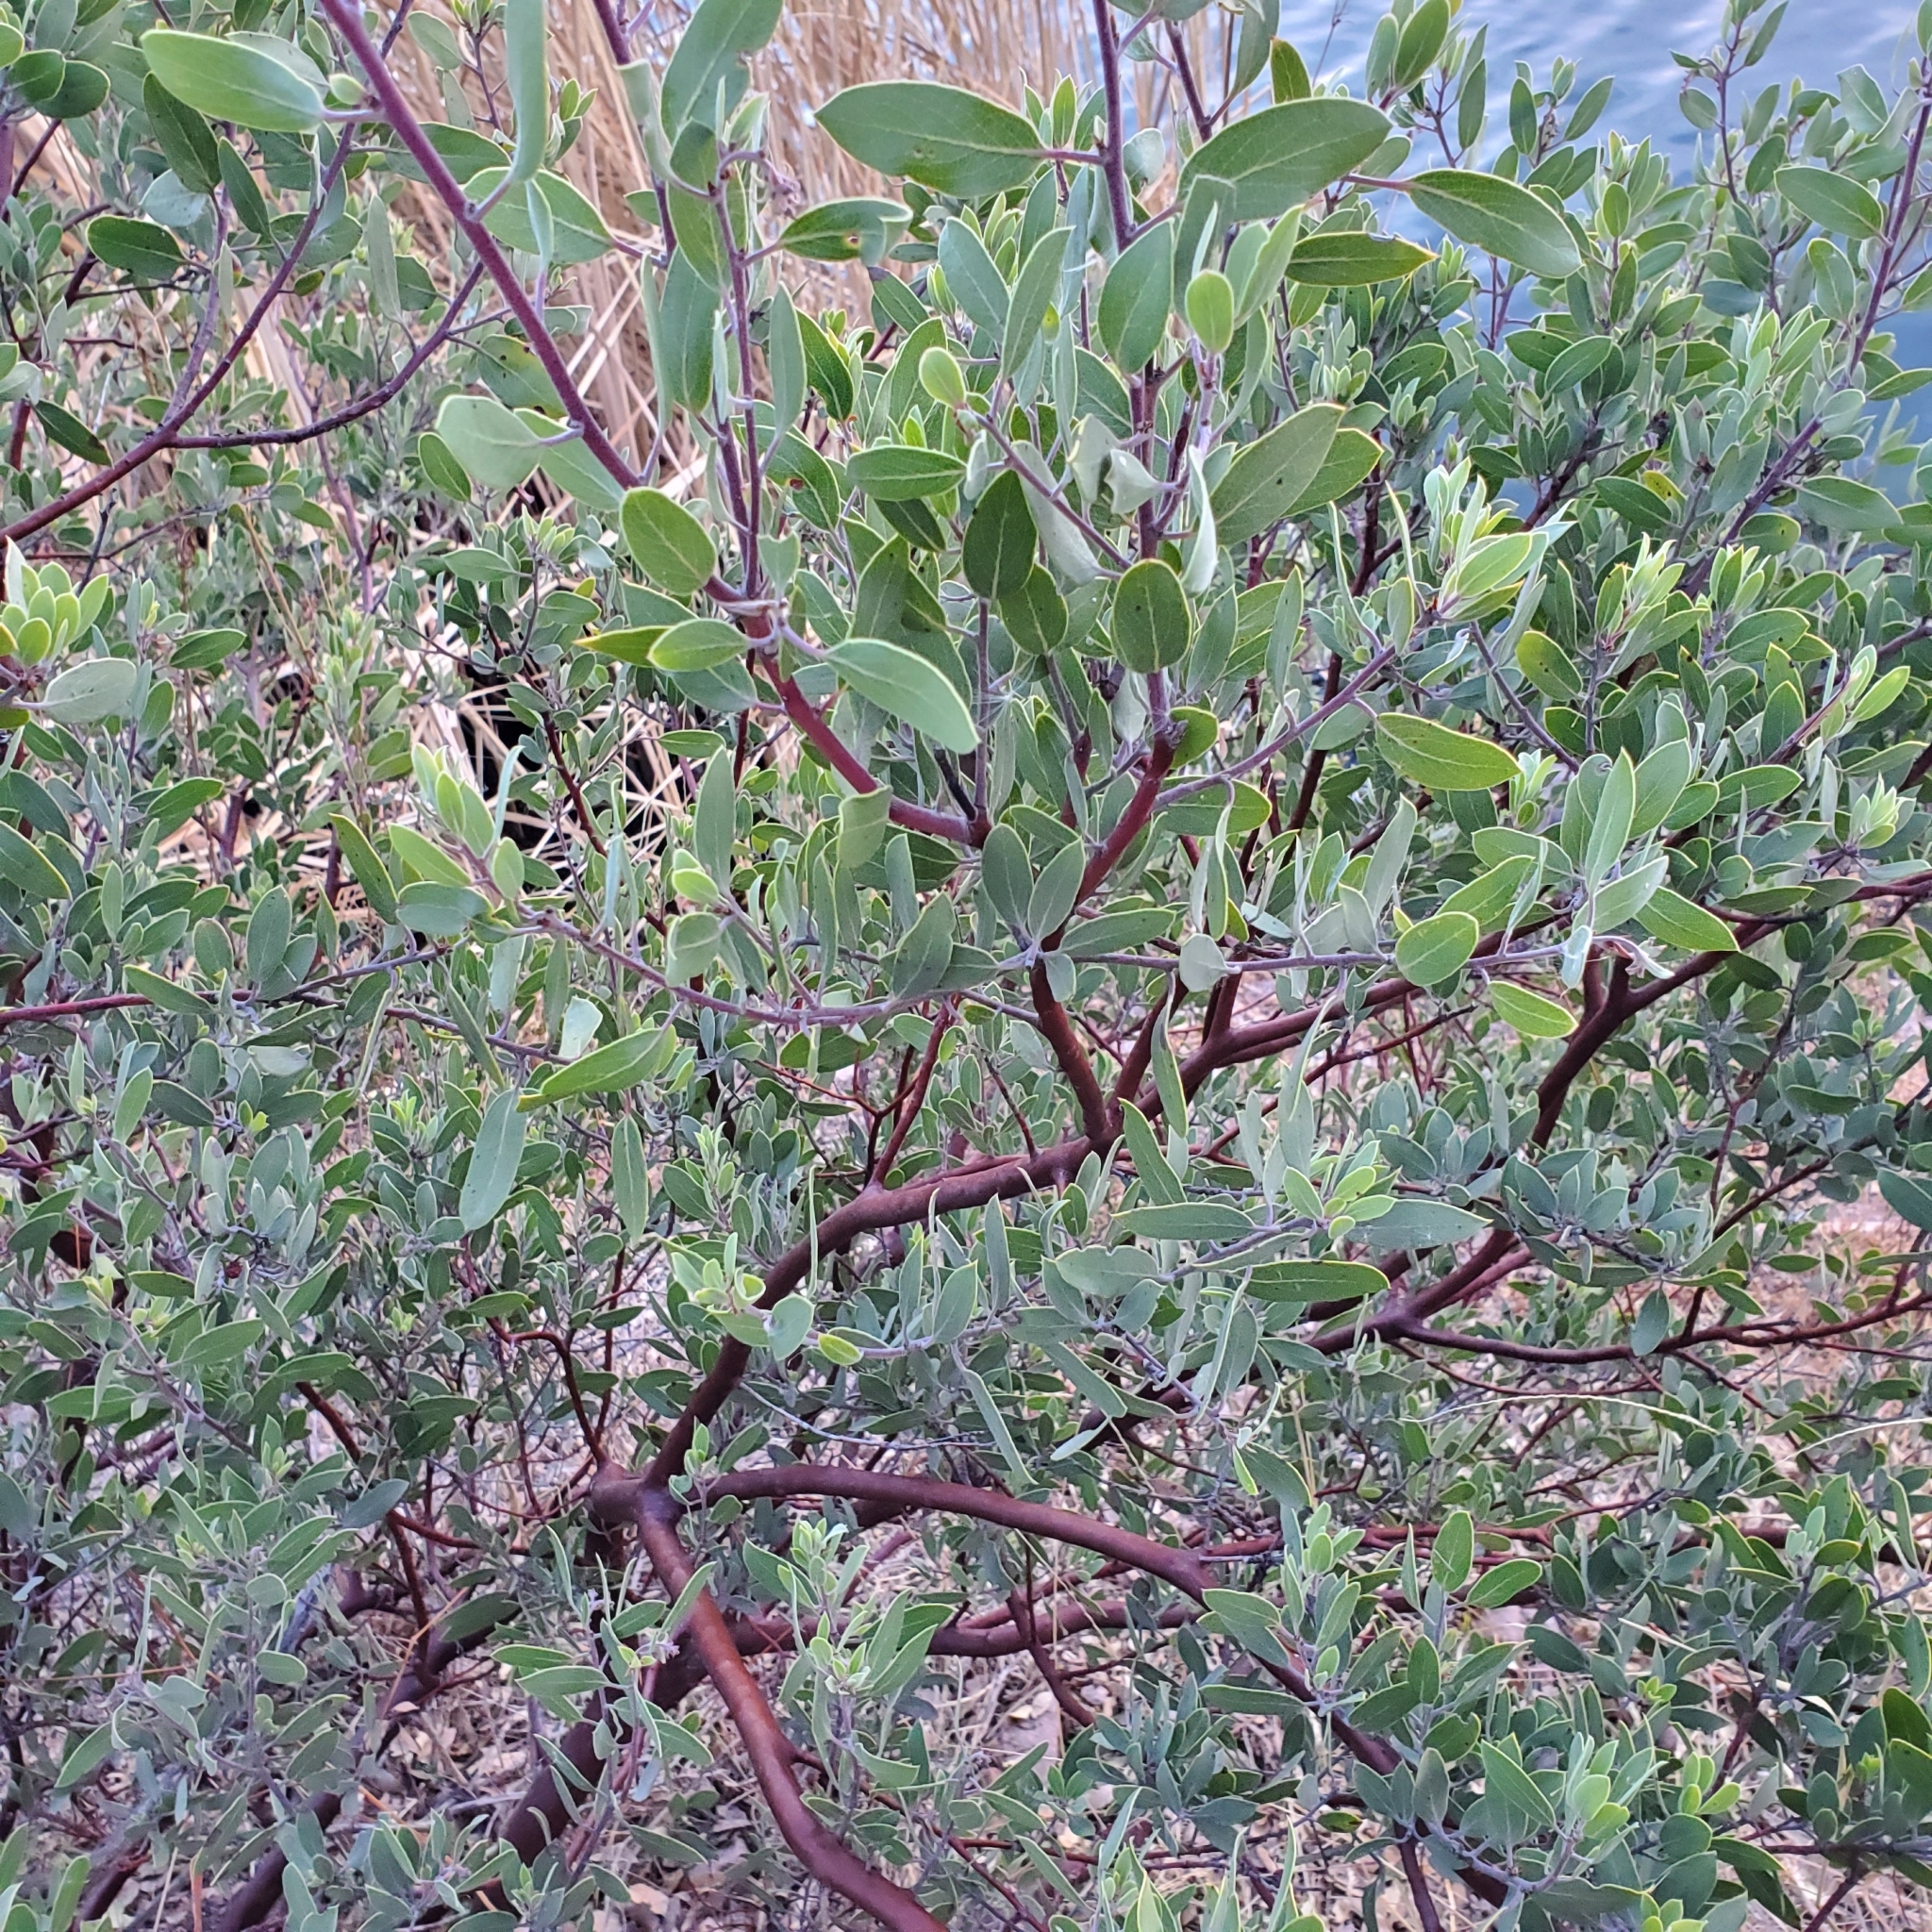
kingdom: Plantae
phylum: Tracheophyta
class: Magnoliopsida
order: Ericales
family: Ericaceae
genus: Arctostaphylos
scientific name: Arctostaphylos pungens
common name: Mexican manzanita
